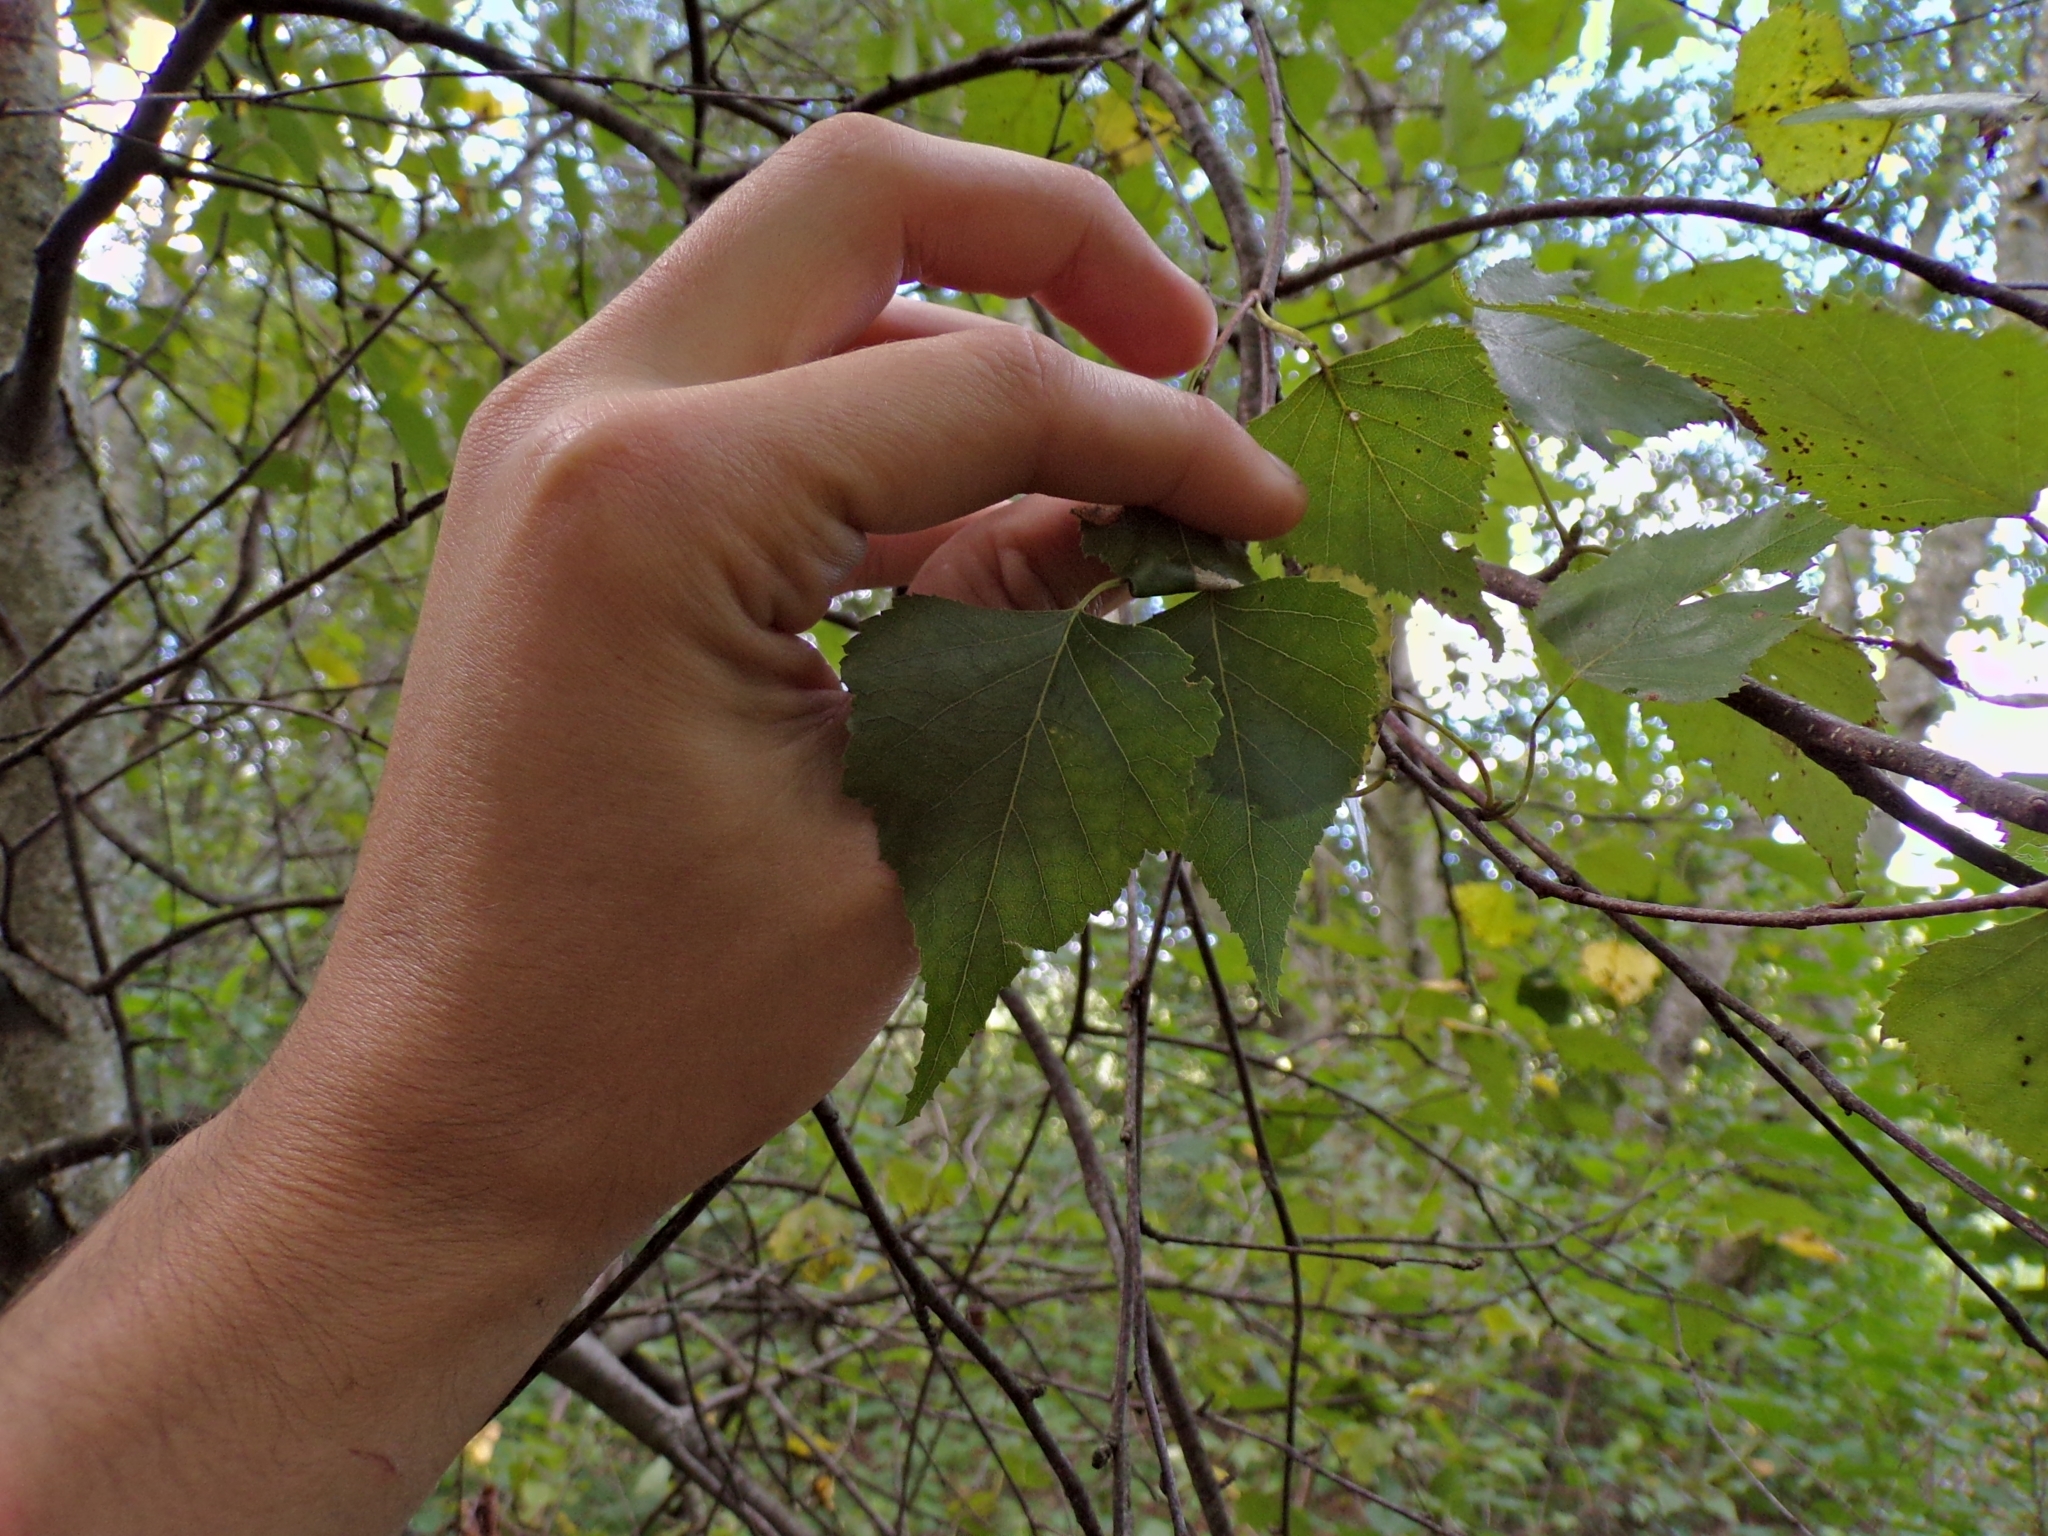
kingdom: Plantae
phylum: Tracheophyta
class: Magnoliopsida
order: Fagales
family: Betulaceae
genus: Betula
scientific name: Betula populifolia
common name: Fire birch
